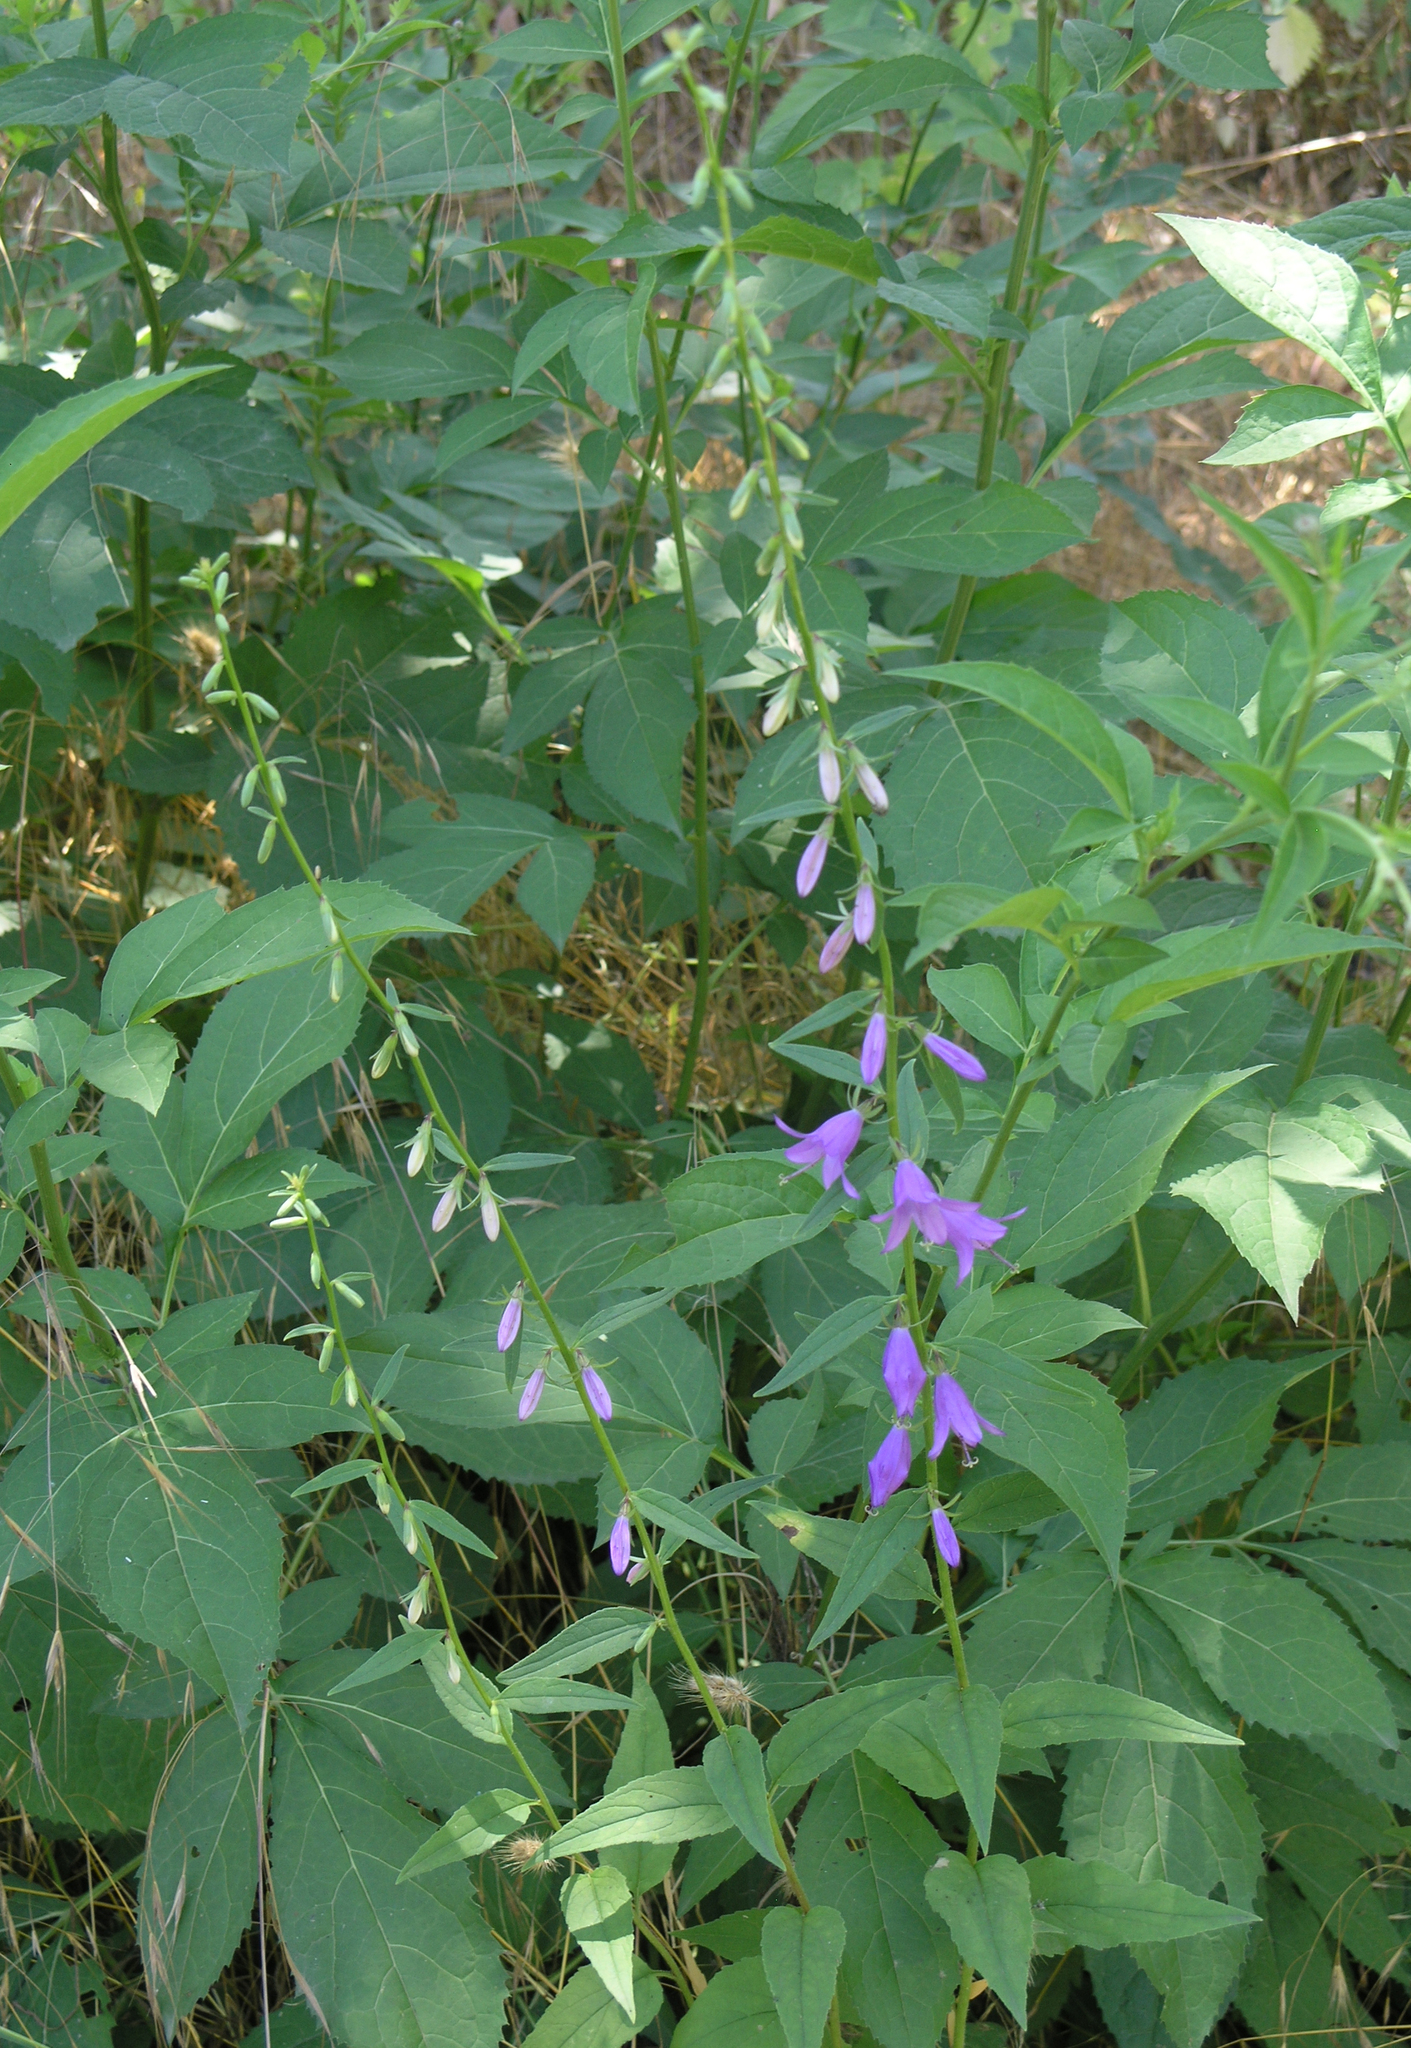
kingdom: Plantae
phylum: Tracheophyta
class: Magnoliopsida
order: Asterales
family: Campanulaceae
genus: Campanula
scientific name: Campanula rapunculoides
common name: Creeping bellflower
